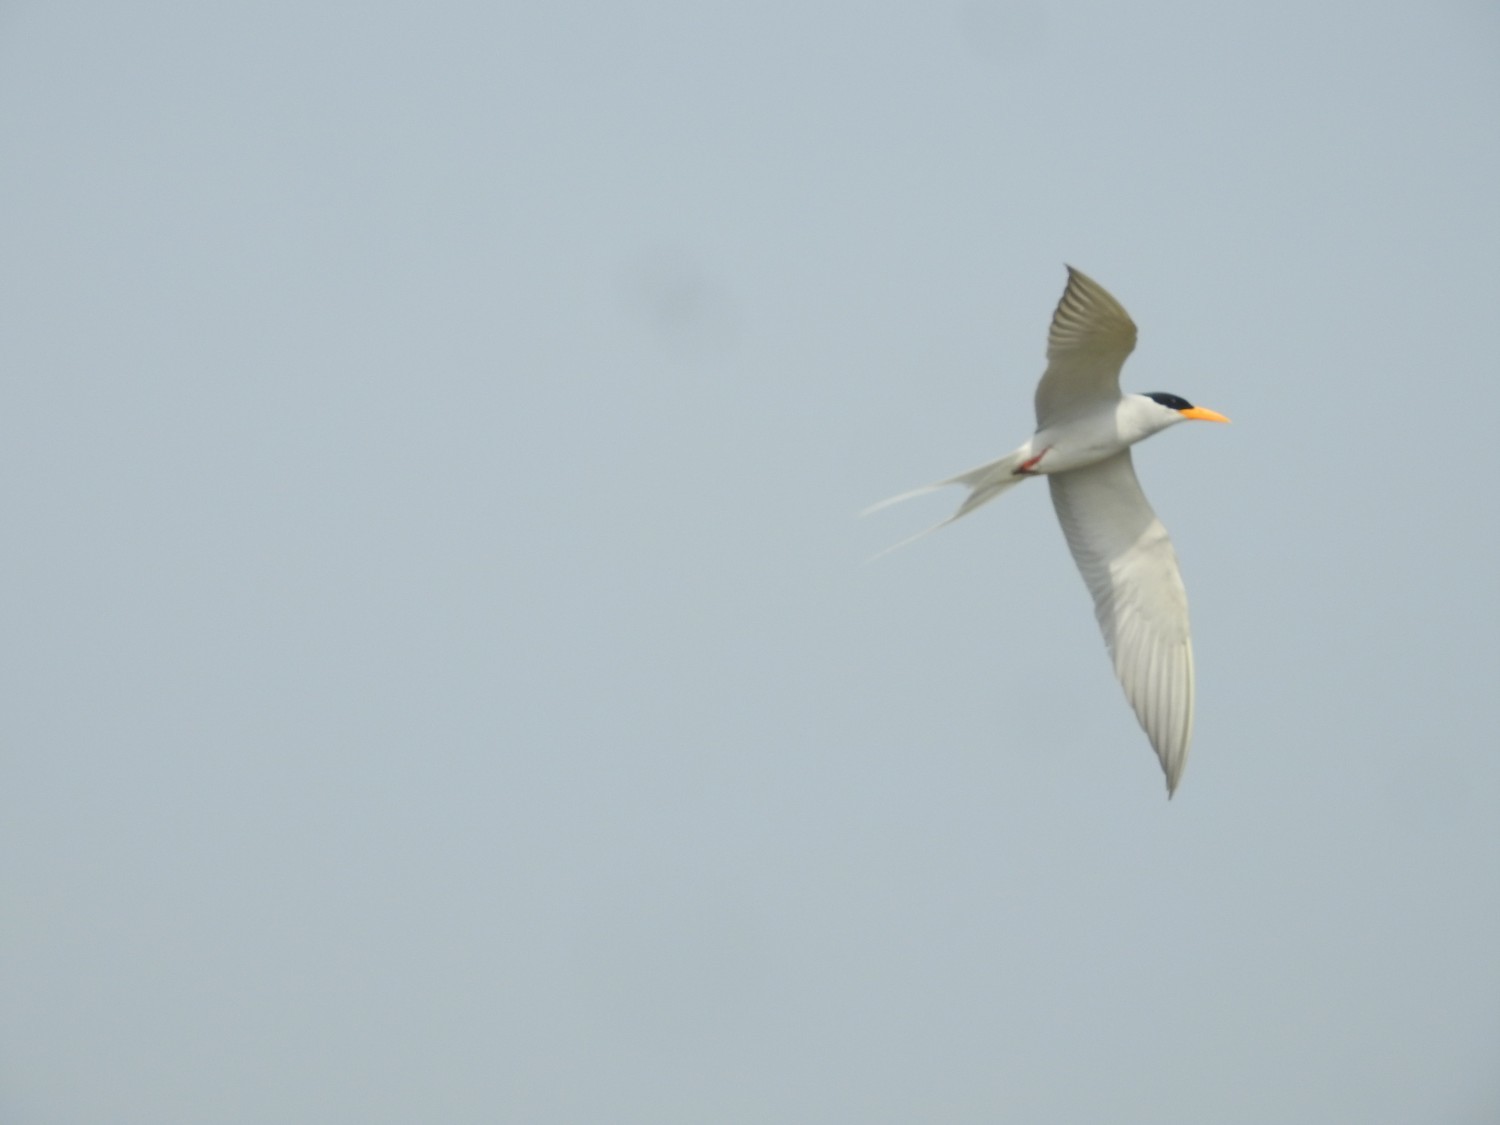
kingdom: Animalia
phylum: Chordata
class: Aves
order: Charadriiformes
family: Laridae
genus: Sterna
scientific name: Sterna aurantia
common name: River tern
